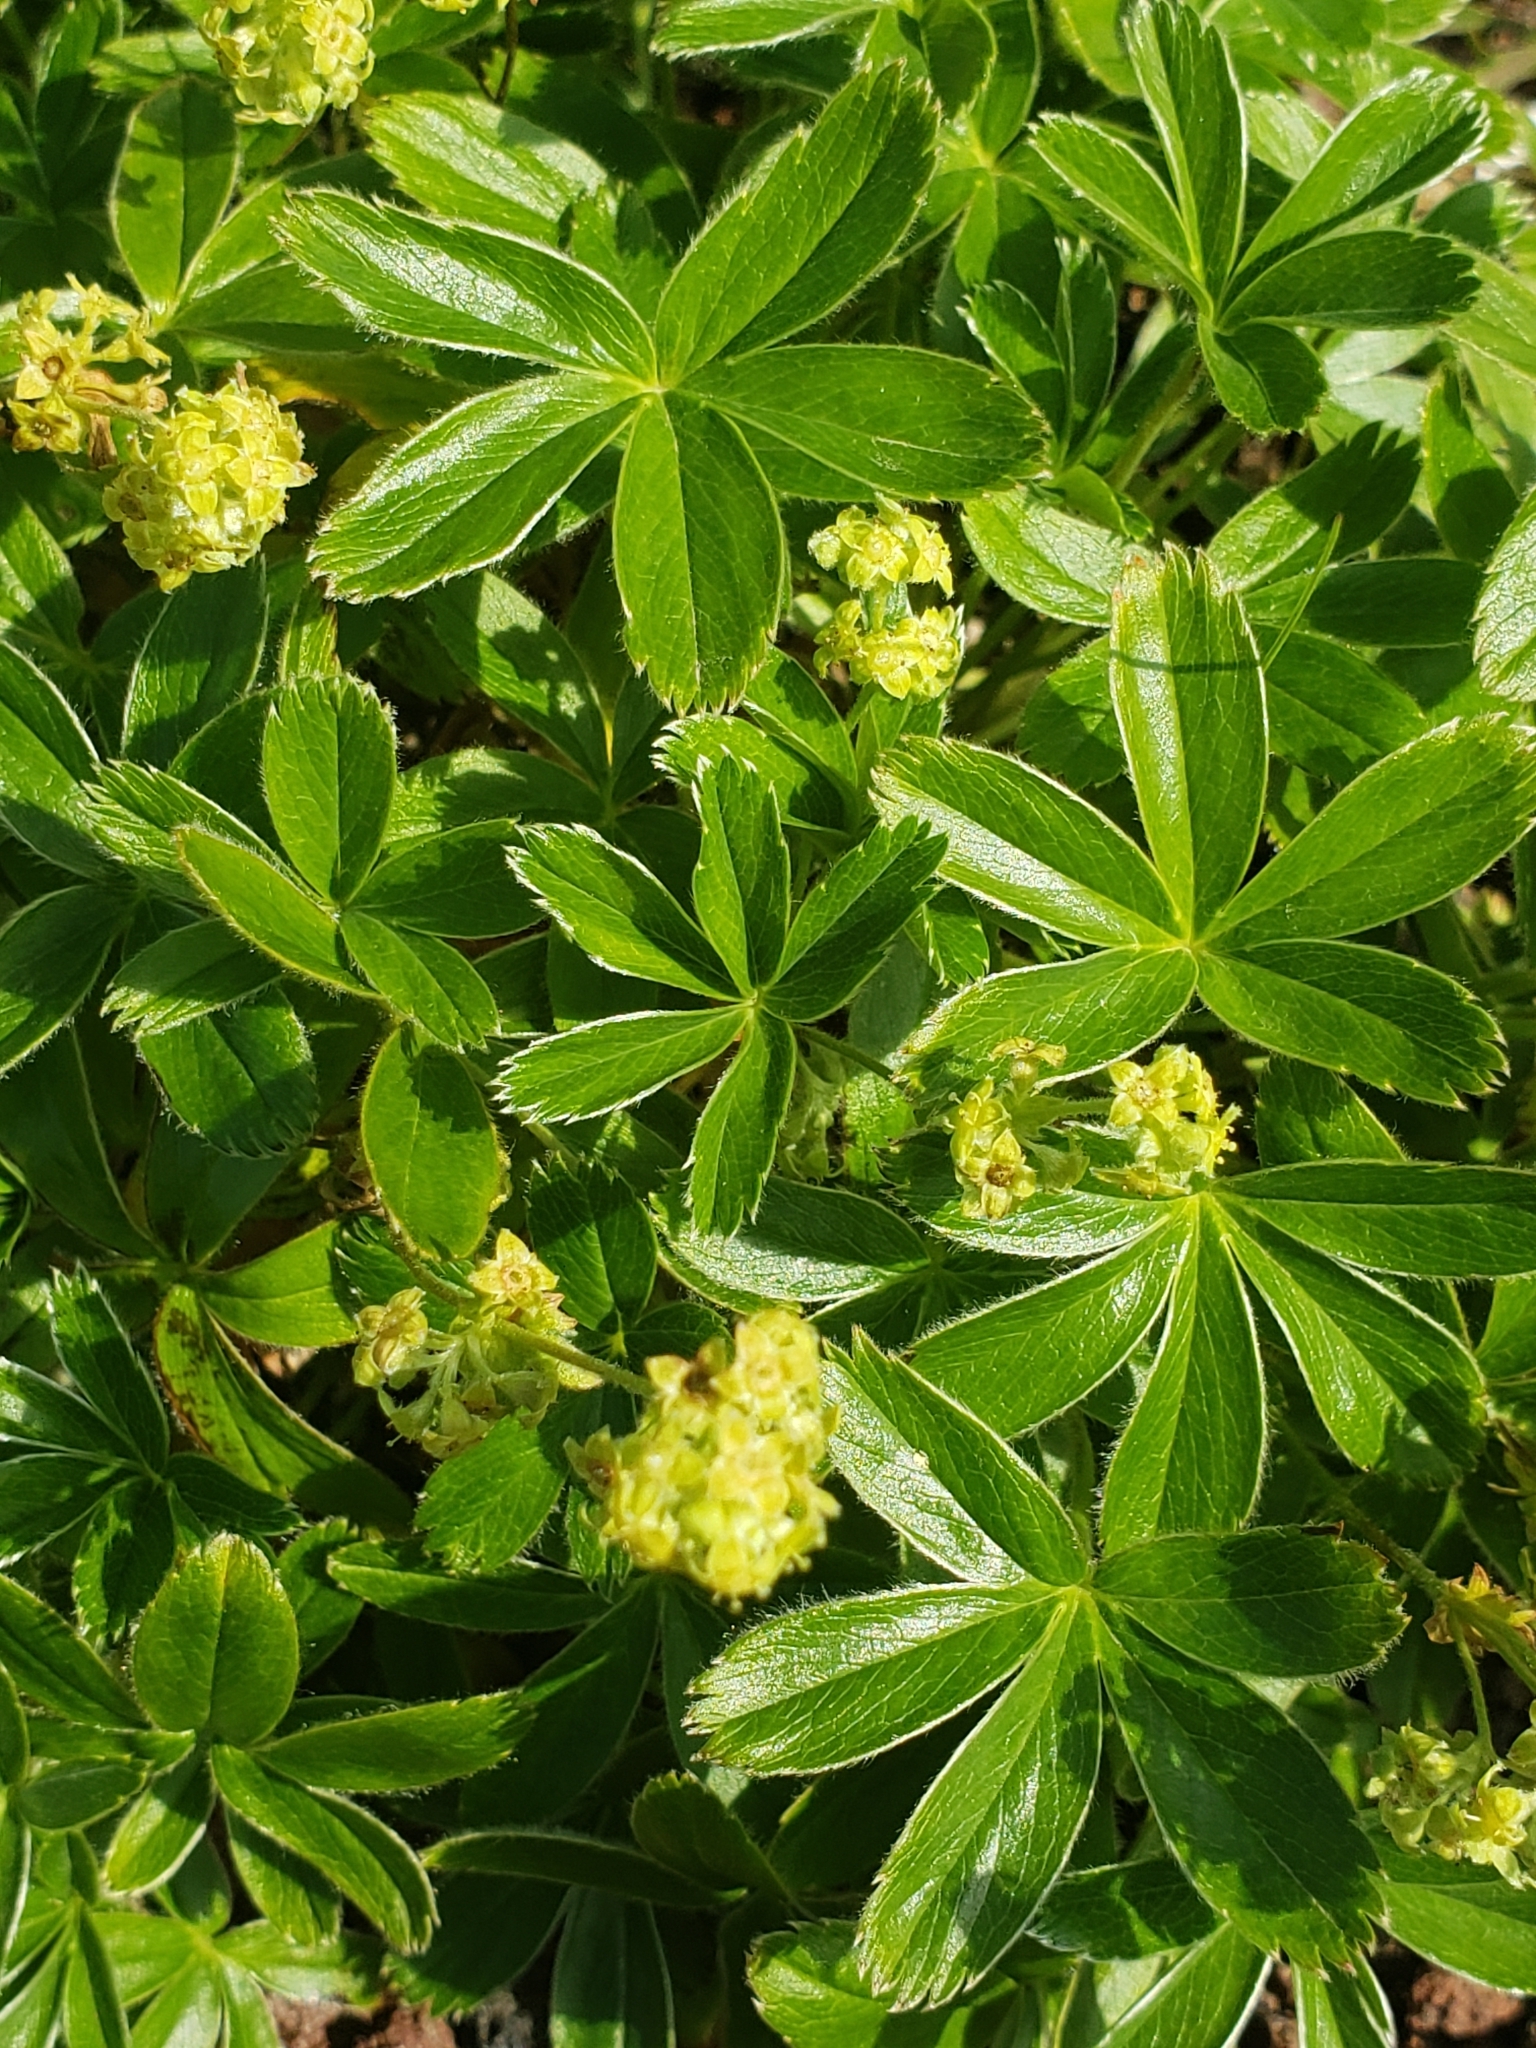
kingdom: Plantae
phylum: Tracheophyta
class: Magnoliopsida
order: Rosales
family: Rosaceae
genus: Alchemilla
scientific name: Alchemilla alpina
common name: Alpine lady's-mantle
